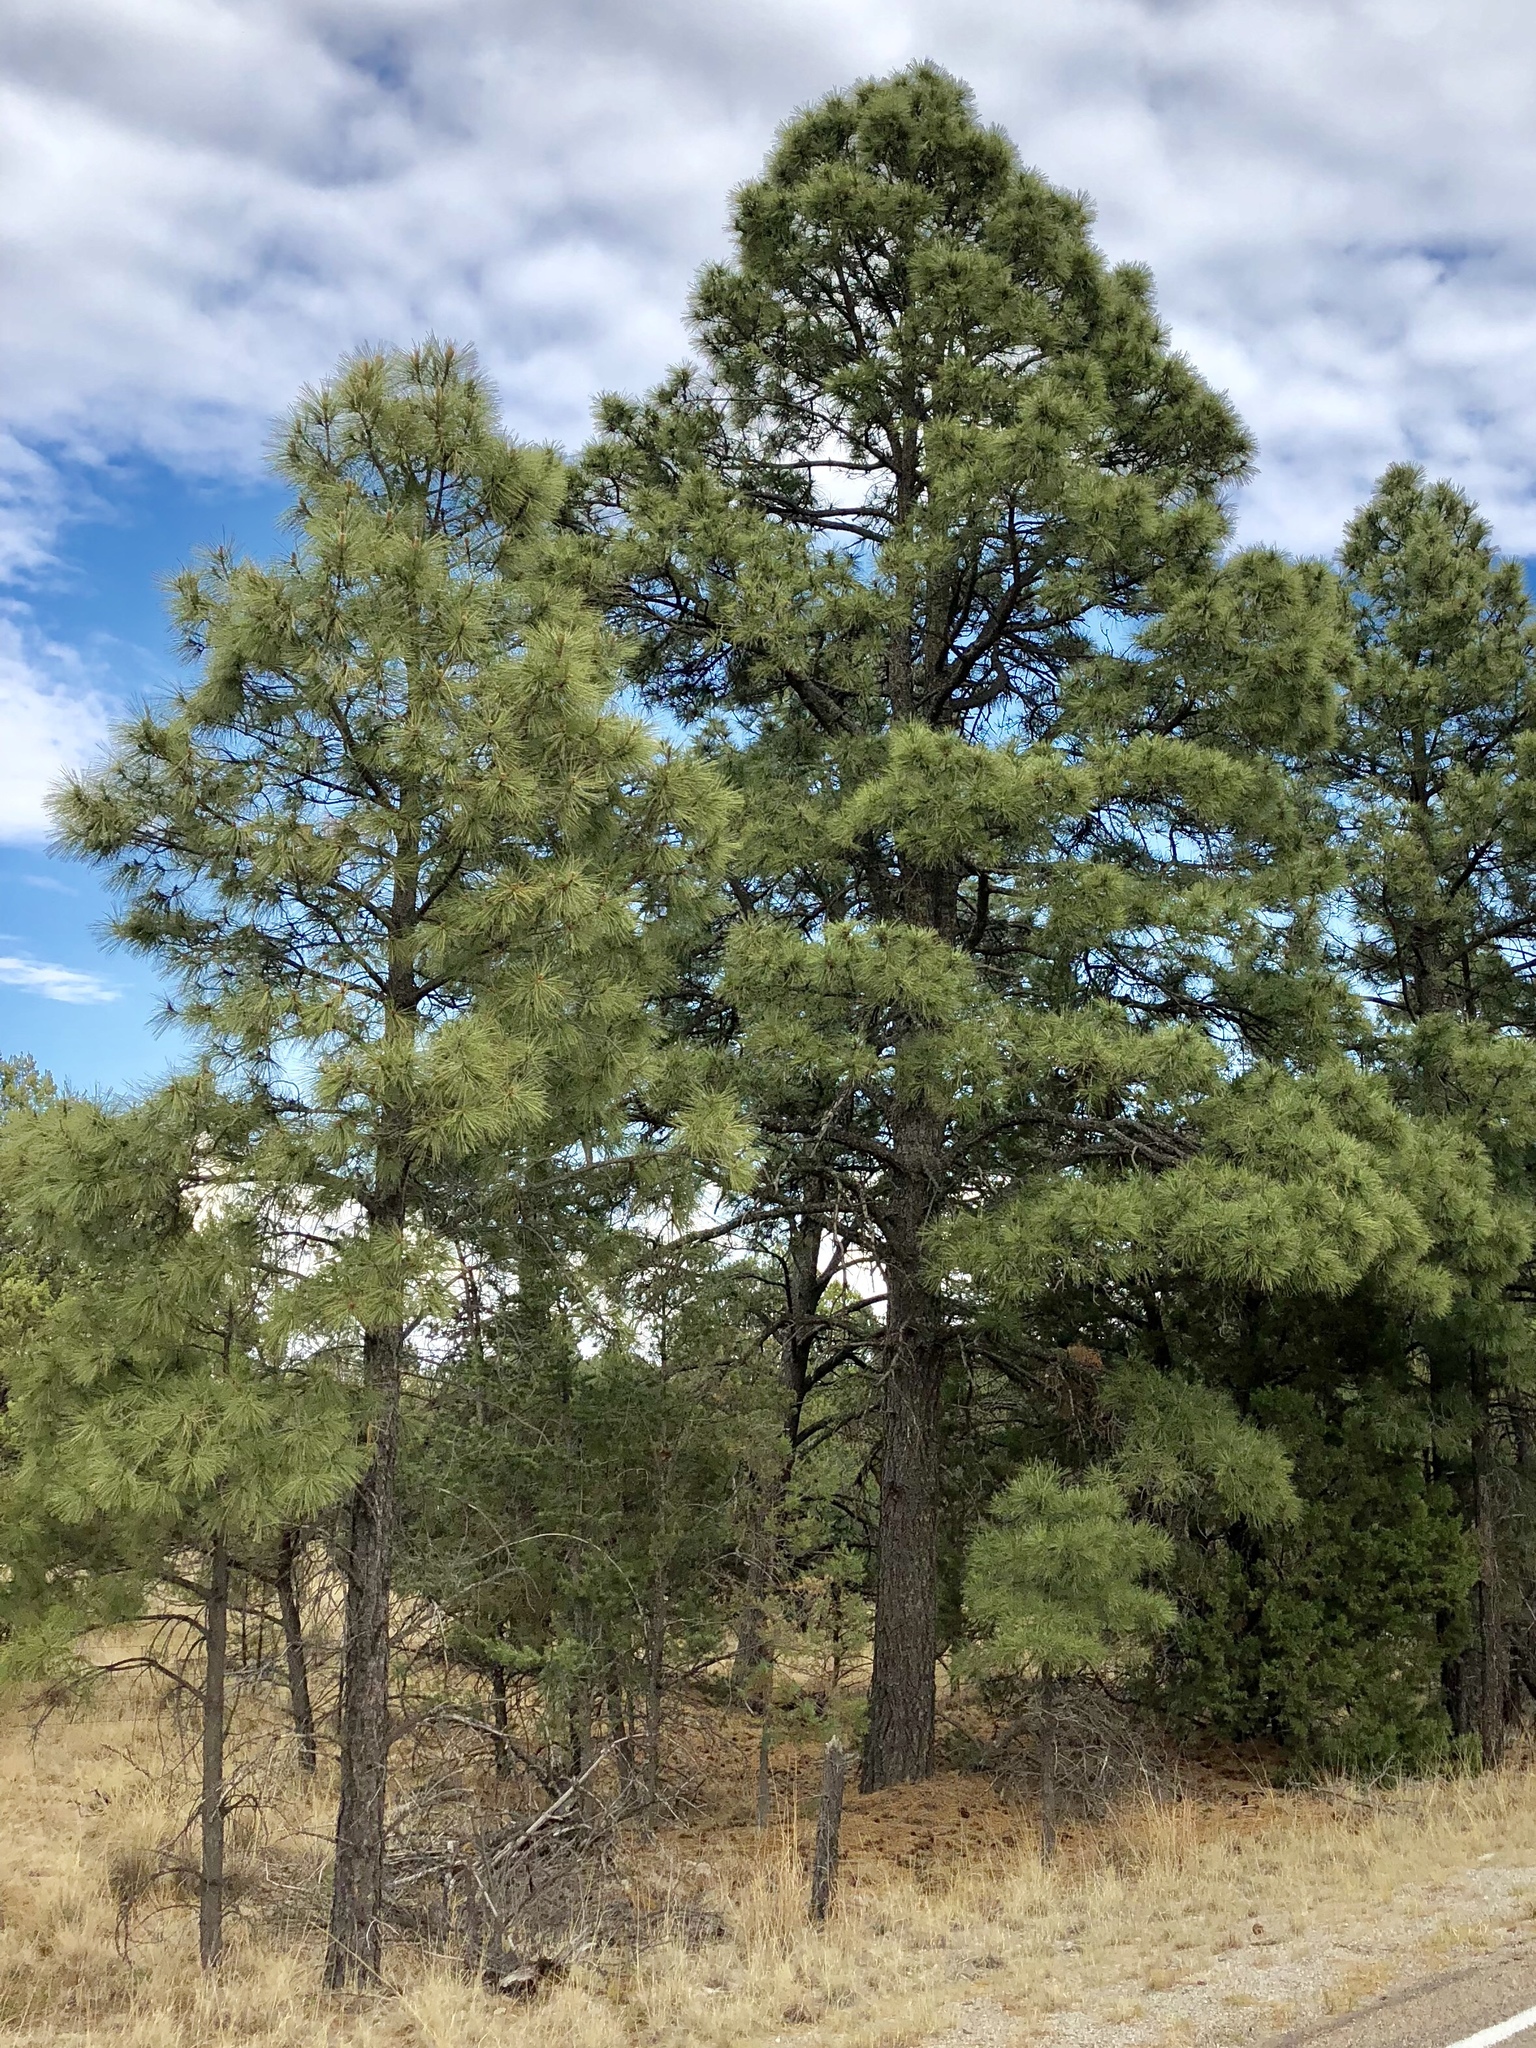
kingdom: Plantae
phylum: Tracheophyta
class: Pinopsida
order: Pinales
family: Pinaceae
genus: Pinus
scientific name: Pinus ponderosa
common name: Western yellow-pine
